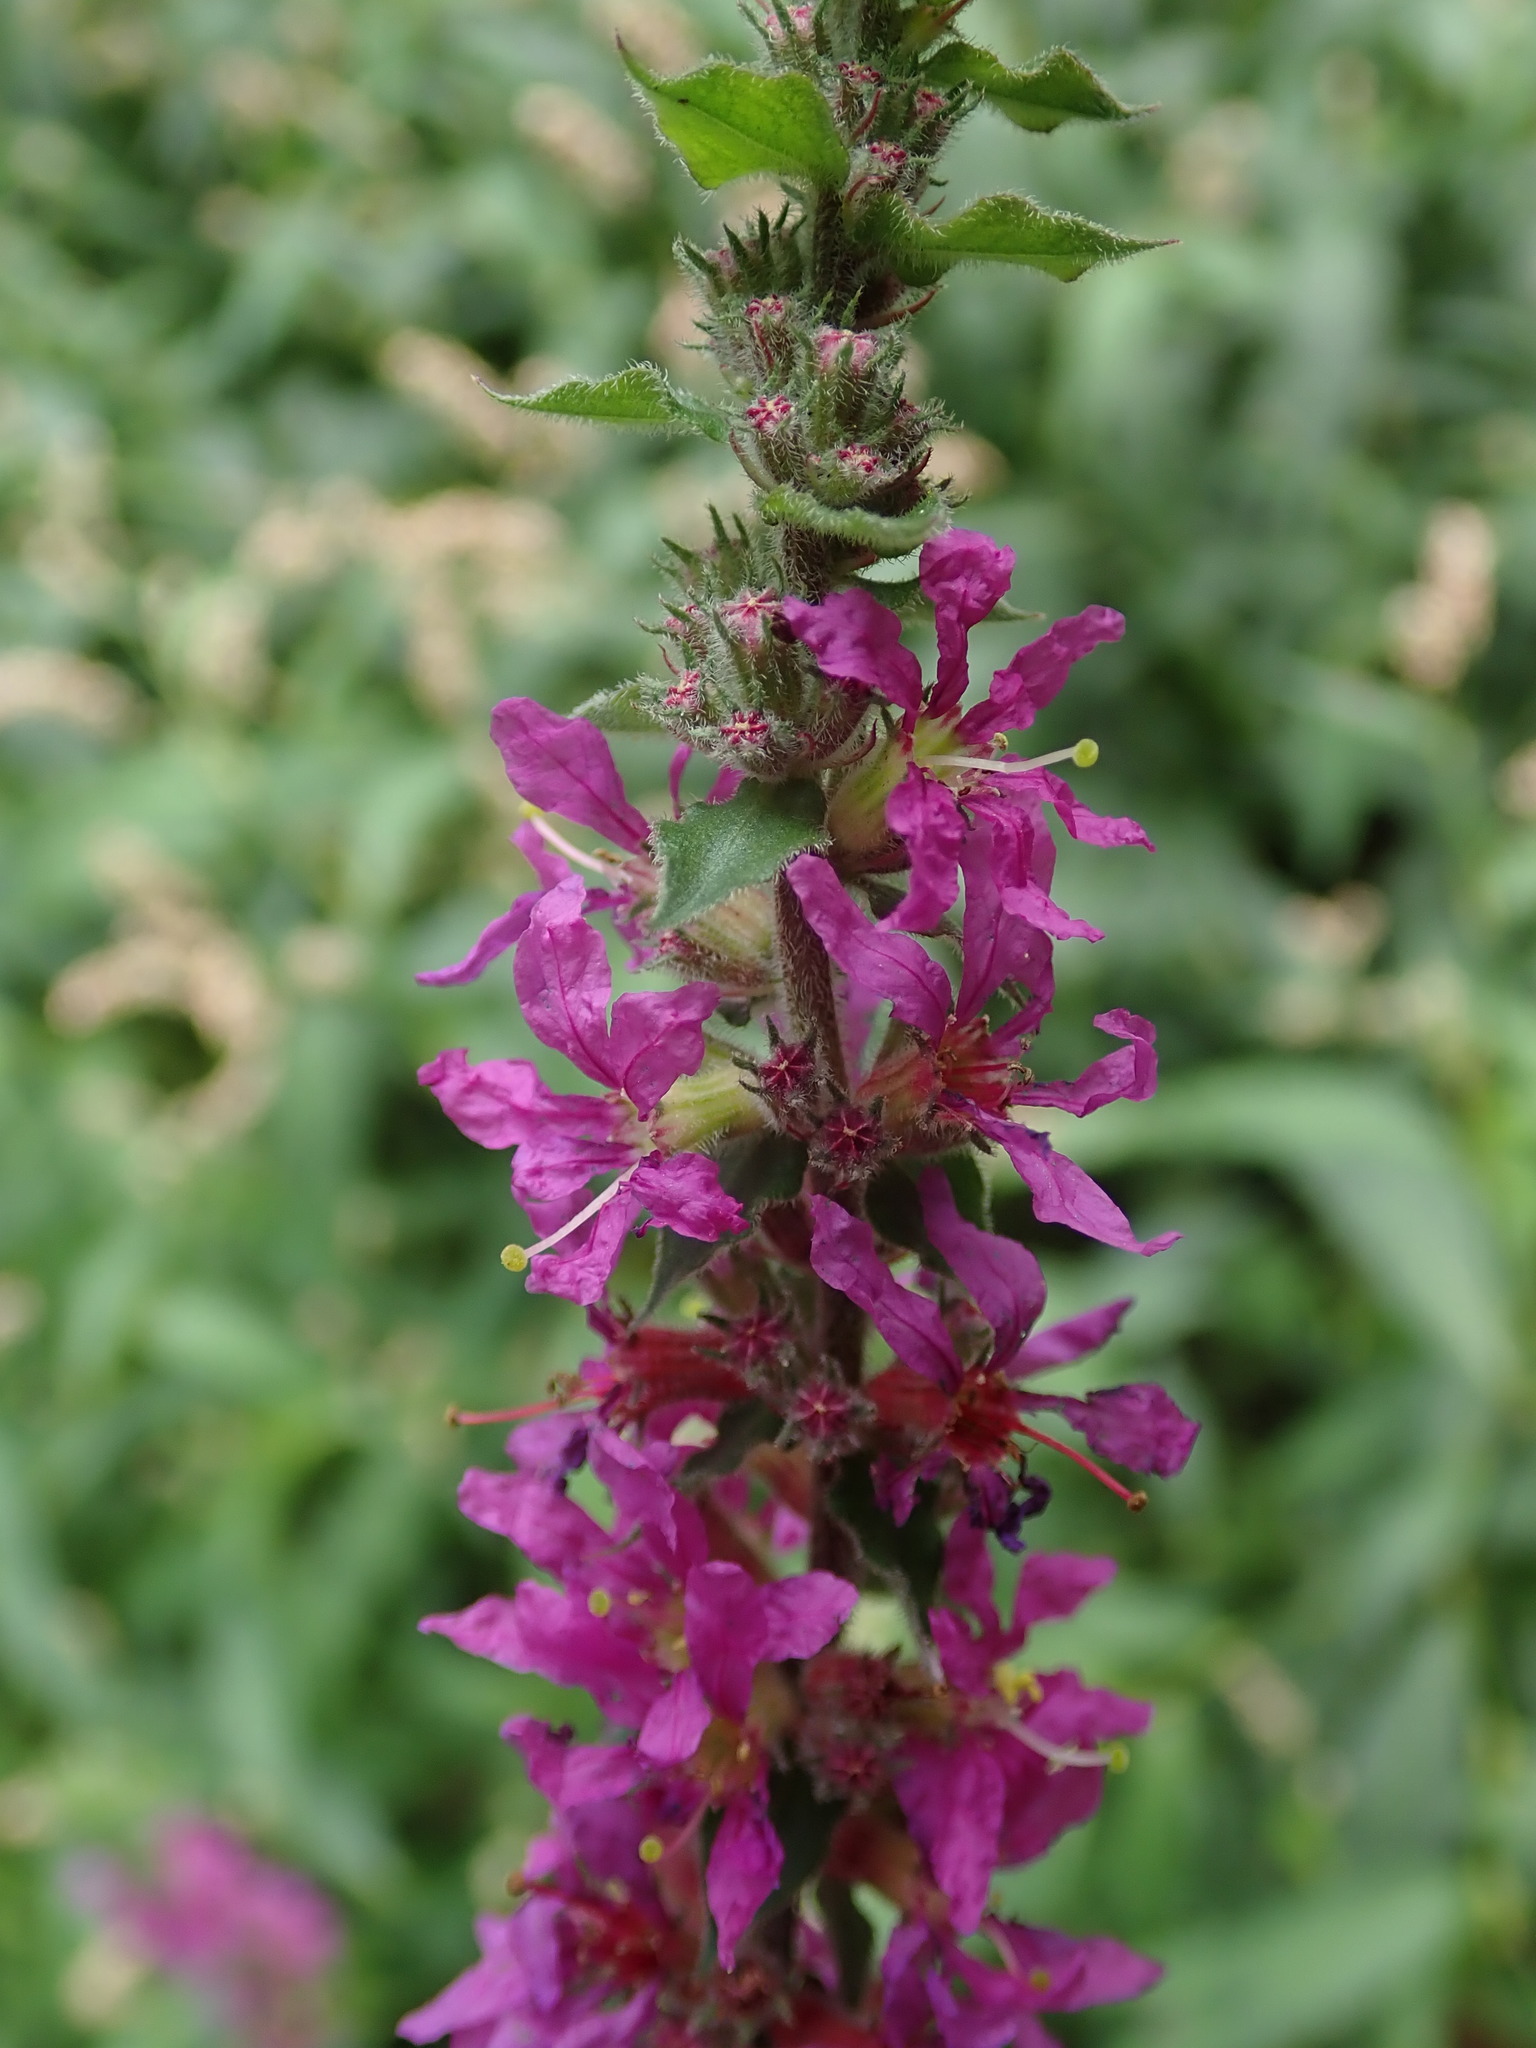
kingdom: Plantae
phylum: Tracheophyta
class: Magnoliopsida
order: Myrtales
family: Lythraceae
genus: Lythrum
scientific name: Lythrum salicaria
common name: Purple loosestrife
